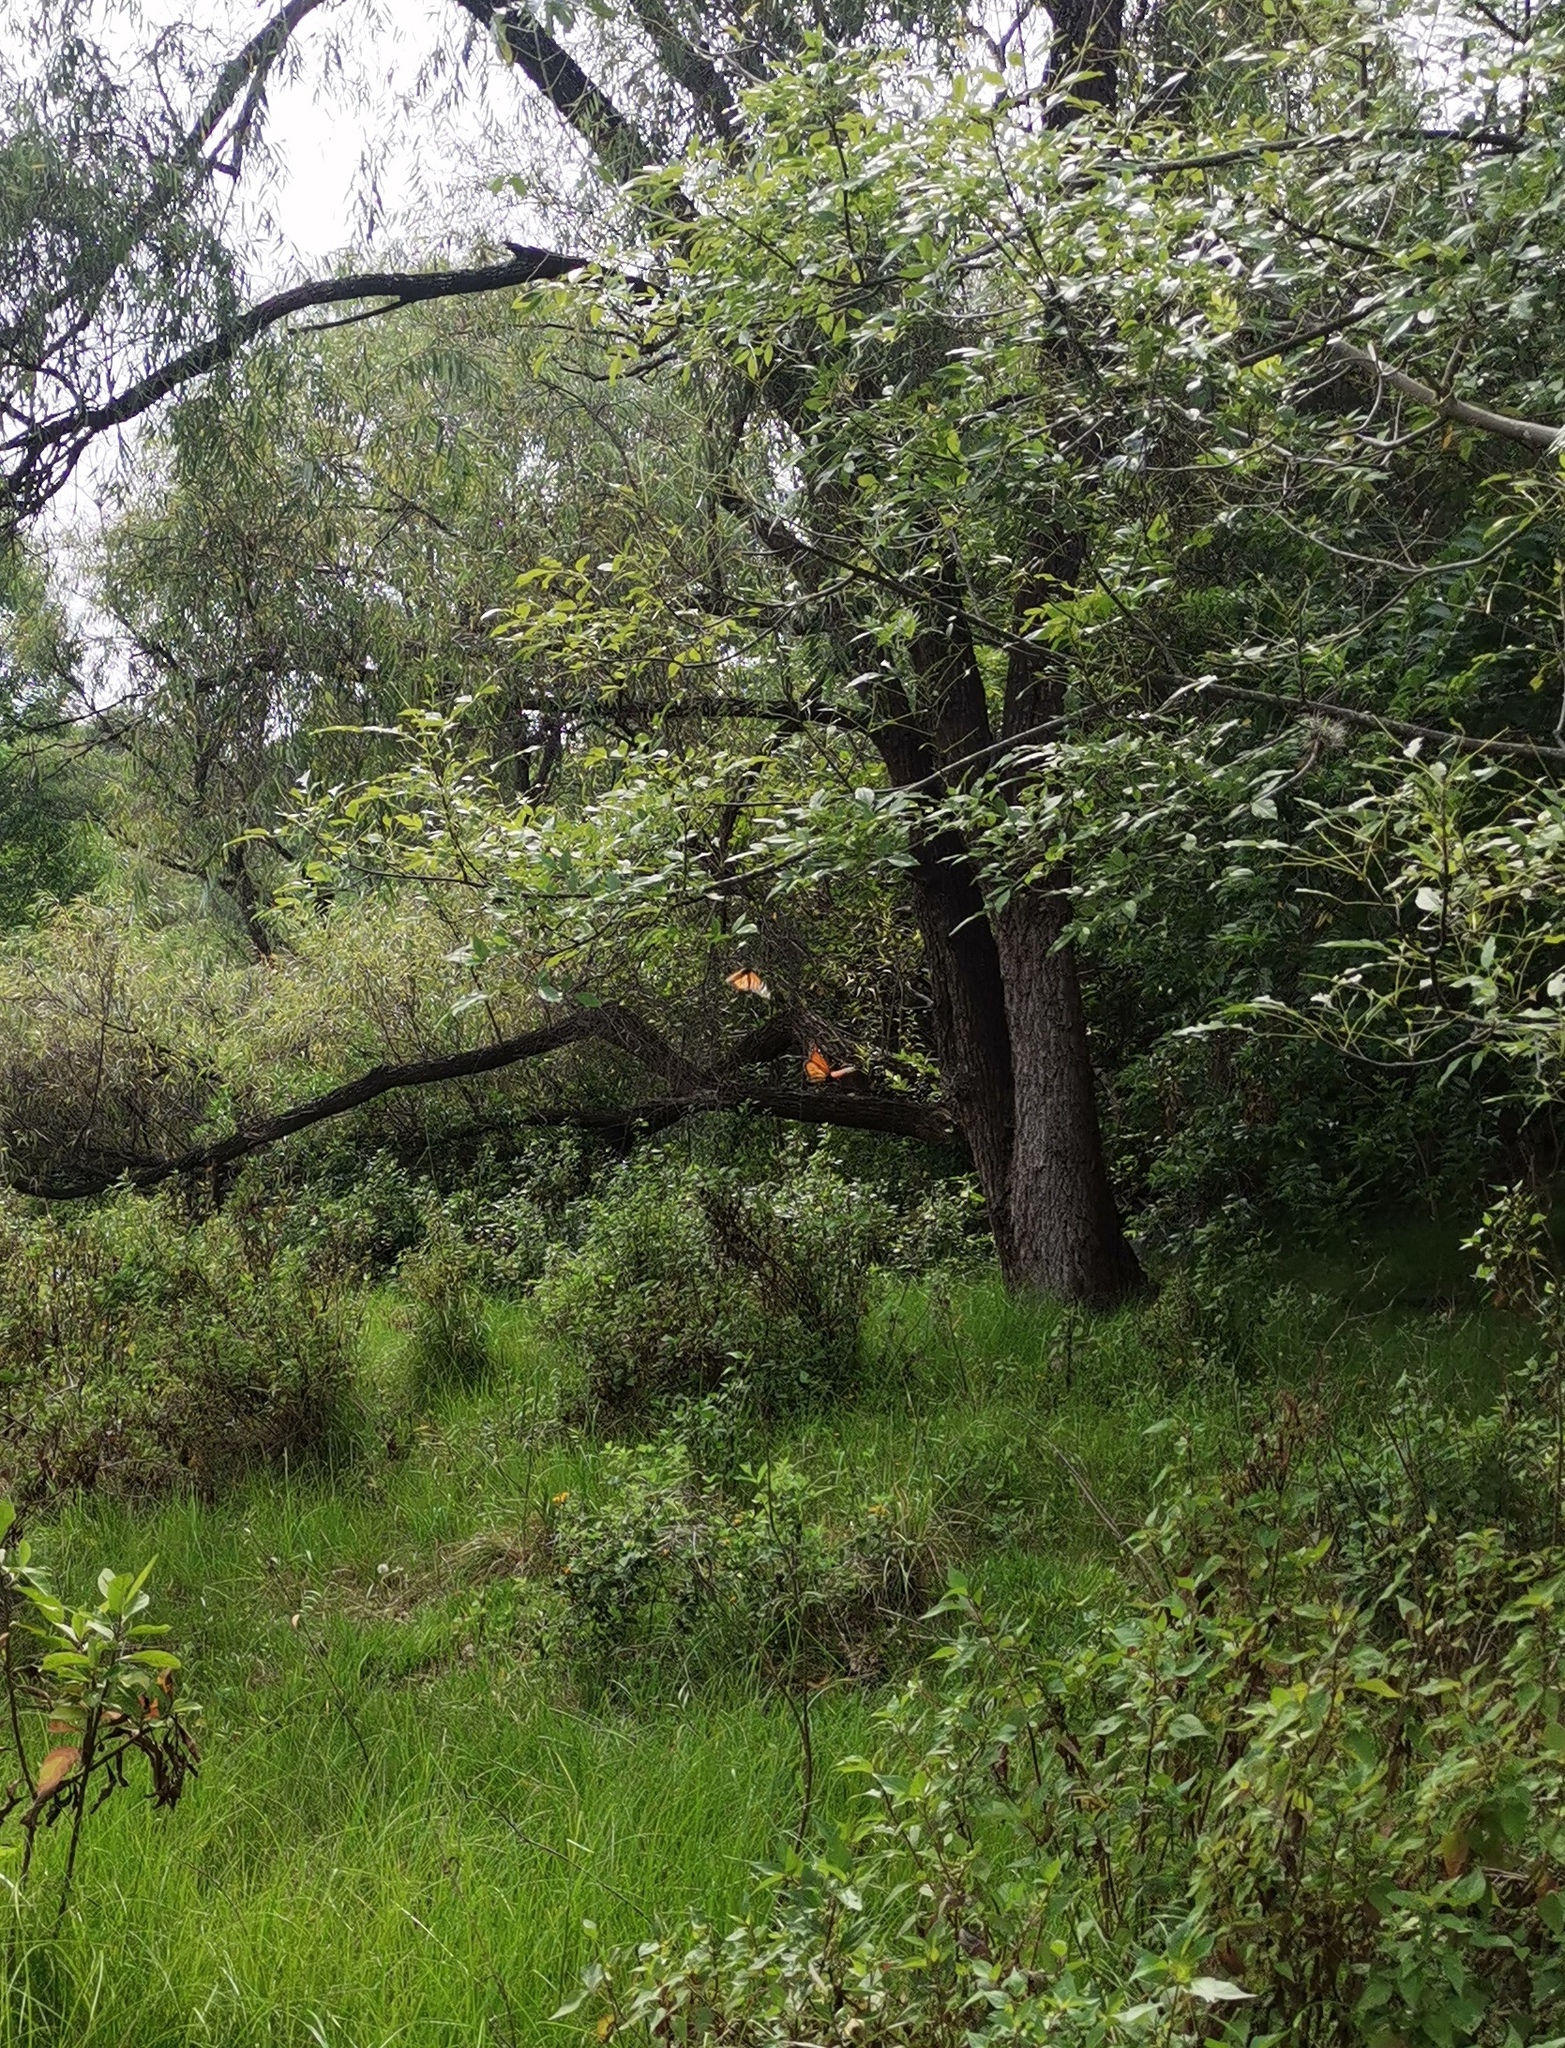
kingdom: Animalia
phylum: Arthropoda
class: Insecta
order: Lepidoptera
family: Nymphalidae
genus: Danaus
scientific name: Danaus plexippus
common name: Monarch
